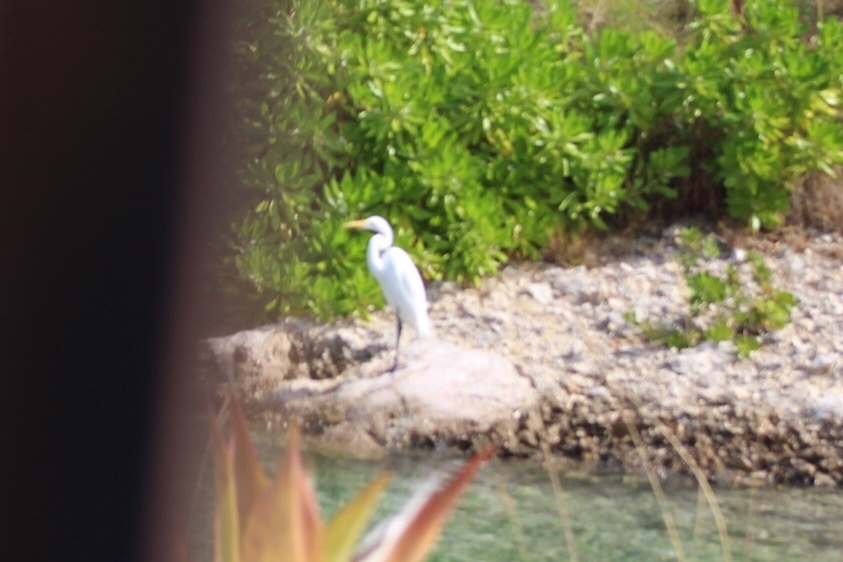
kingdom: Animalia
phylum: Chordata
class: Aves
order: Pelecaniformes
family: Ardeidae
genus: Ardea
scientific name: Ardea alba
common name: Great egret
